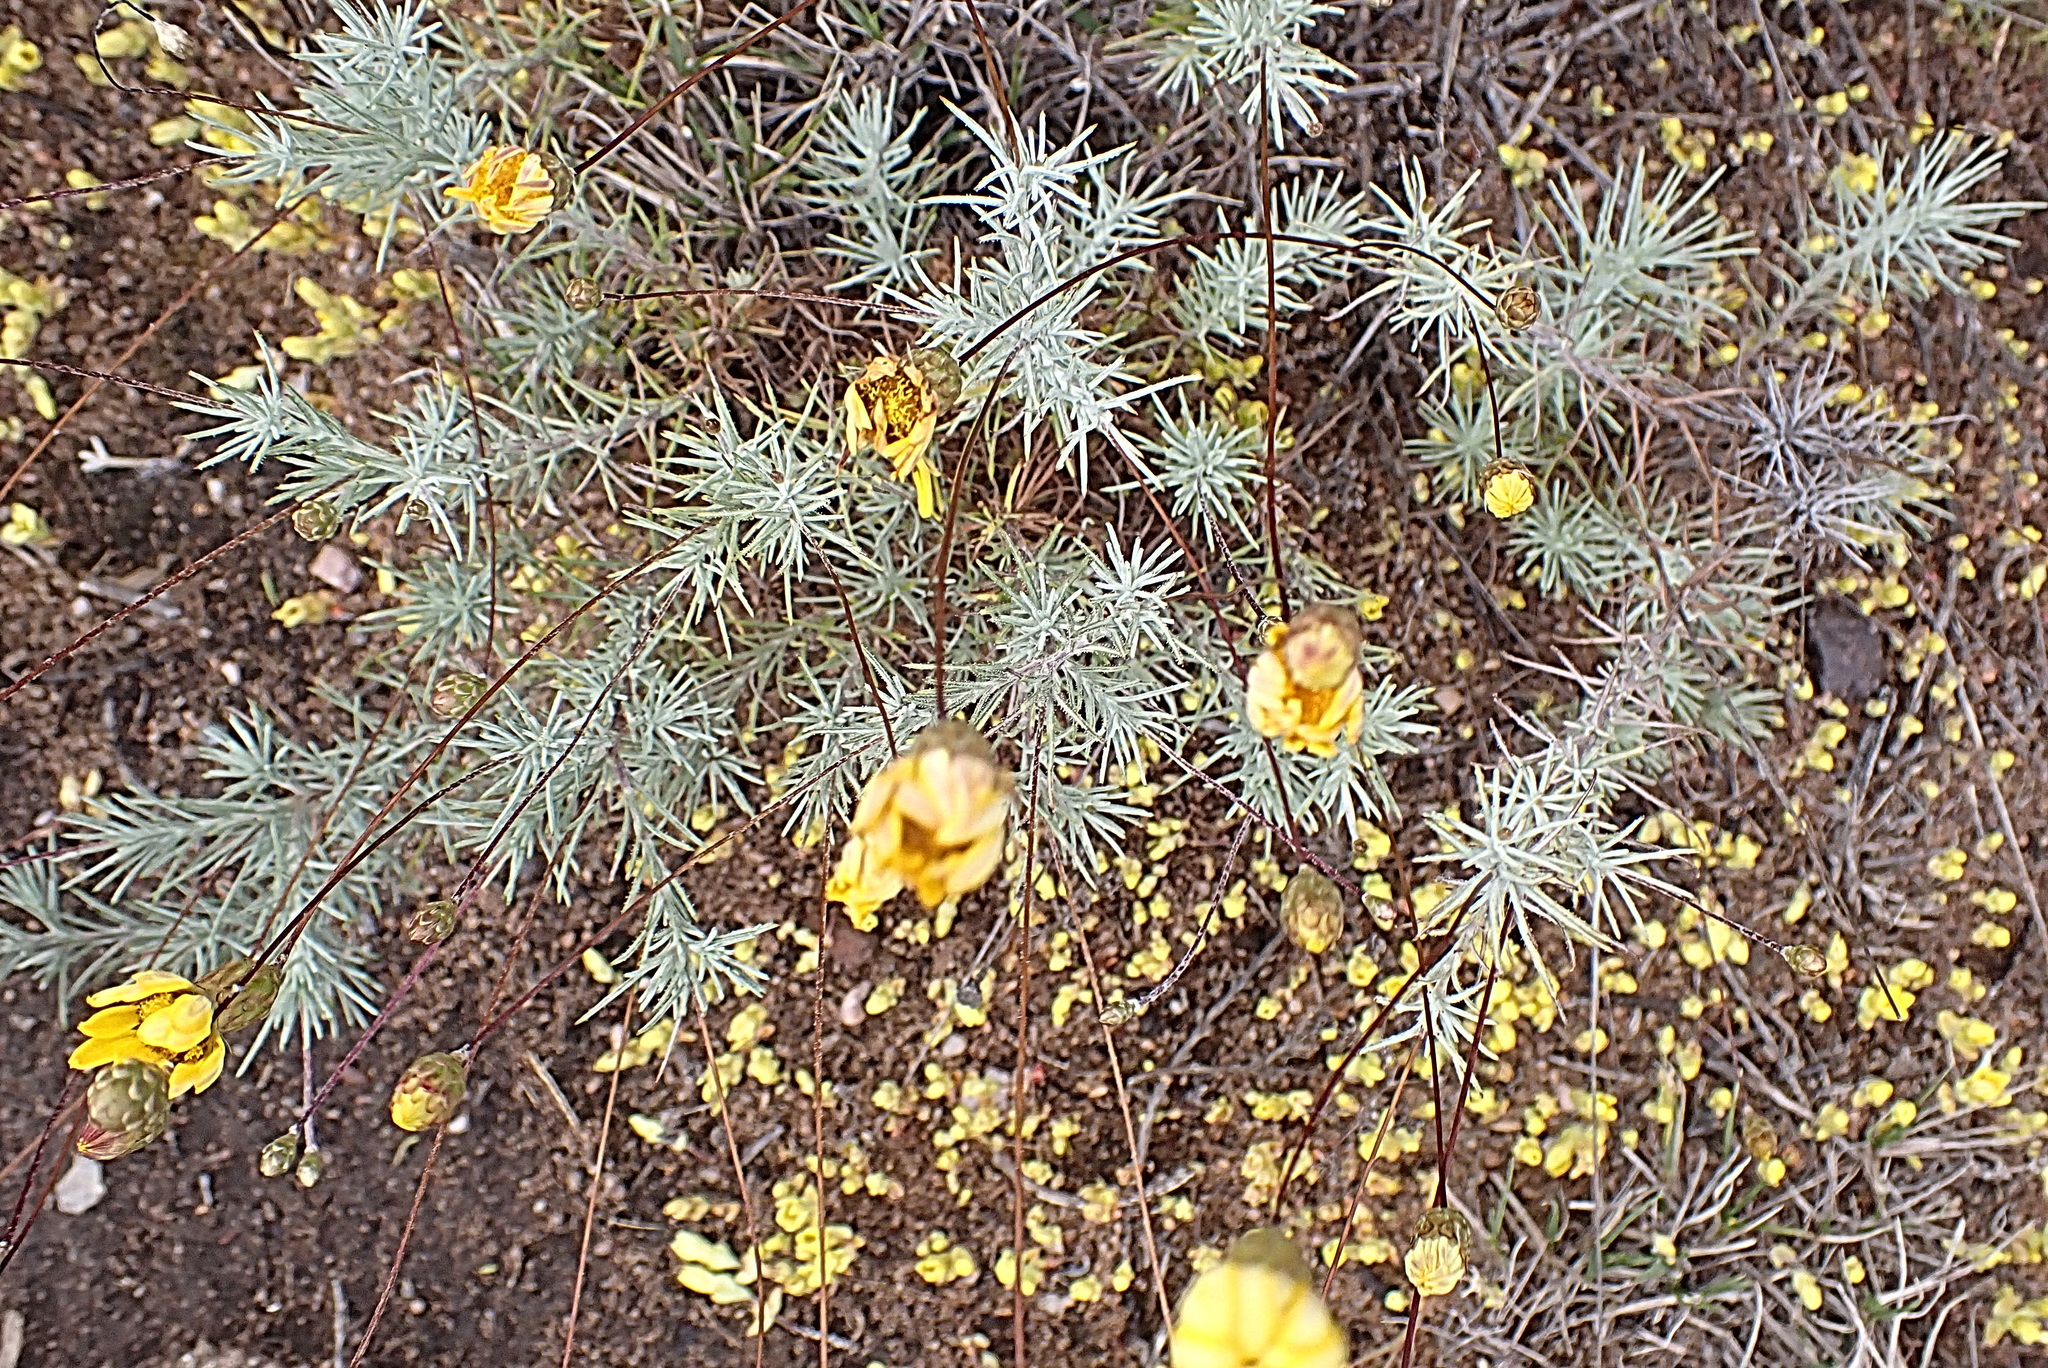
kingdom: Plantae
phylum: Tracheophyta
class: Magnoliopsida
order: Asterales
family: Asteraceae
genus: Leysera
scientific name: Leysera tenella
